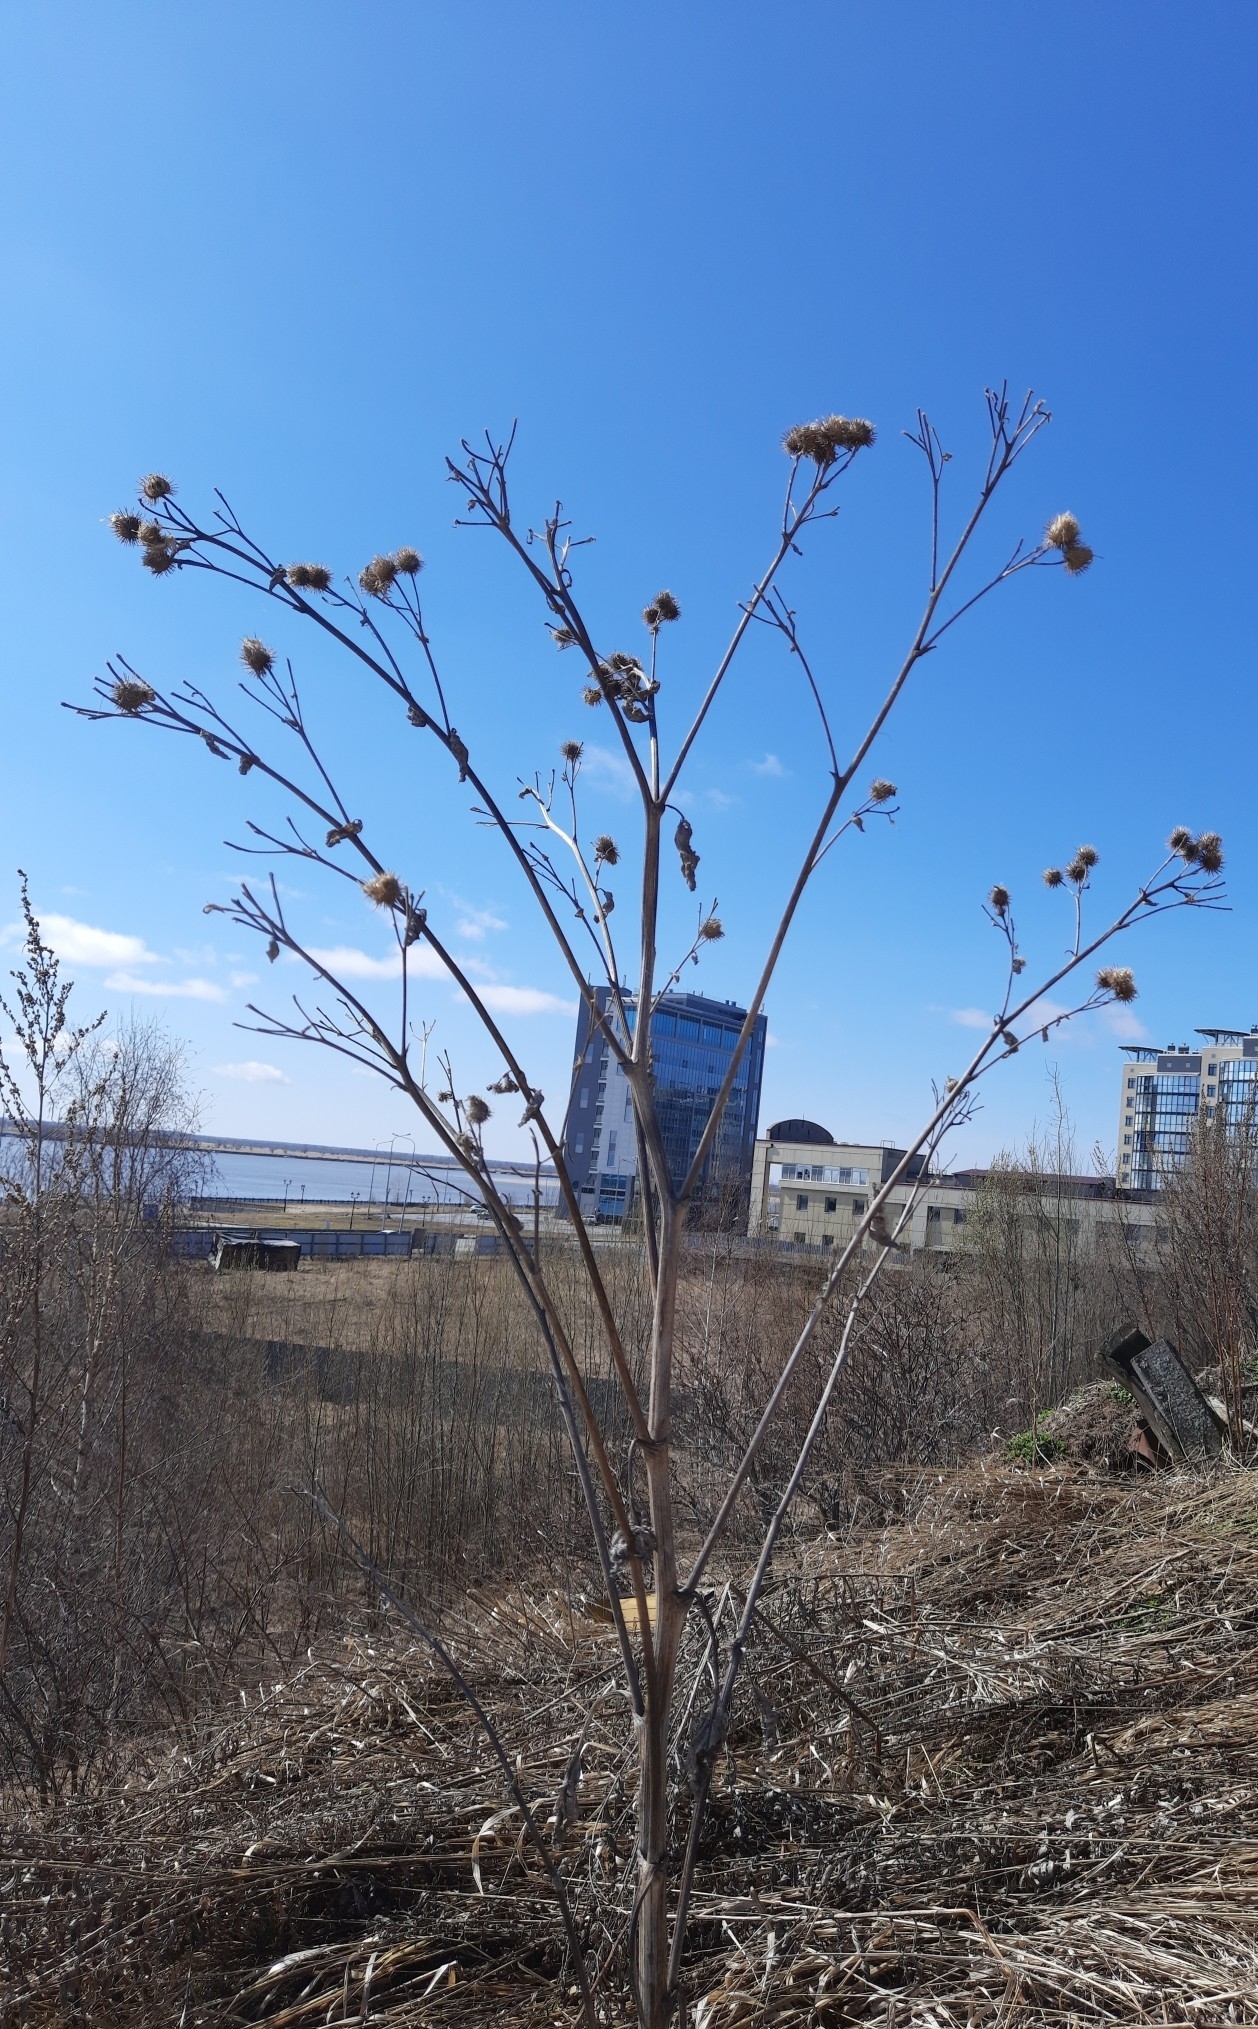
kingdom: Plantae
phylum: Tracheophyta
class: Magnoliopsida
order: Asterales
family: Asteraceae
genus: Arctium
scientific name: Arctium tomentosum
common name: Woolly burdock
